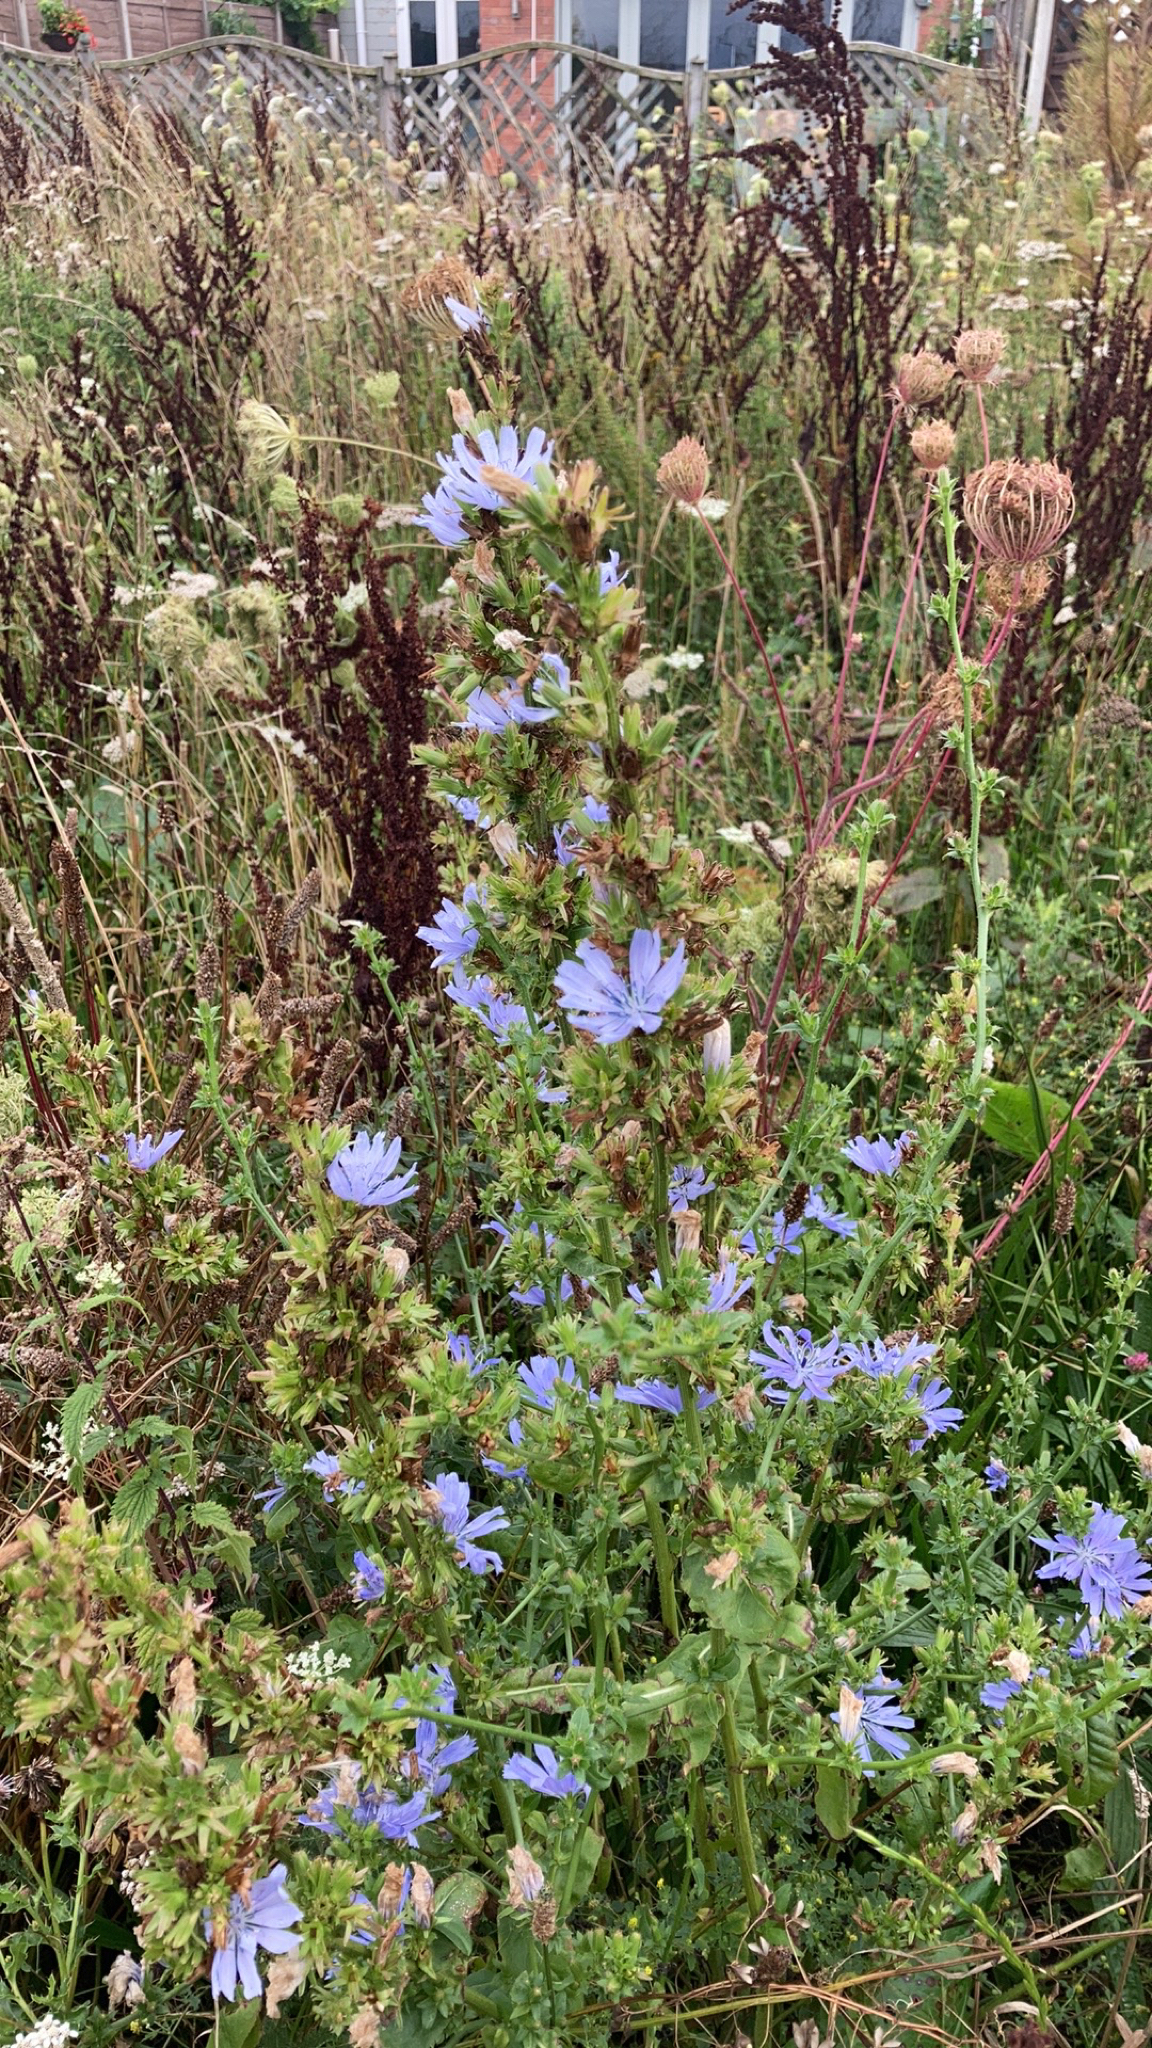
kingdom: Plantae
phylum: Tracheophyta
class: Magnoliopsida
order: Asterales
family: Asteraceae
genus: Cichorium
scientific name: Cichorium intybus
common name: Chicory
